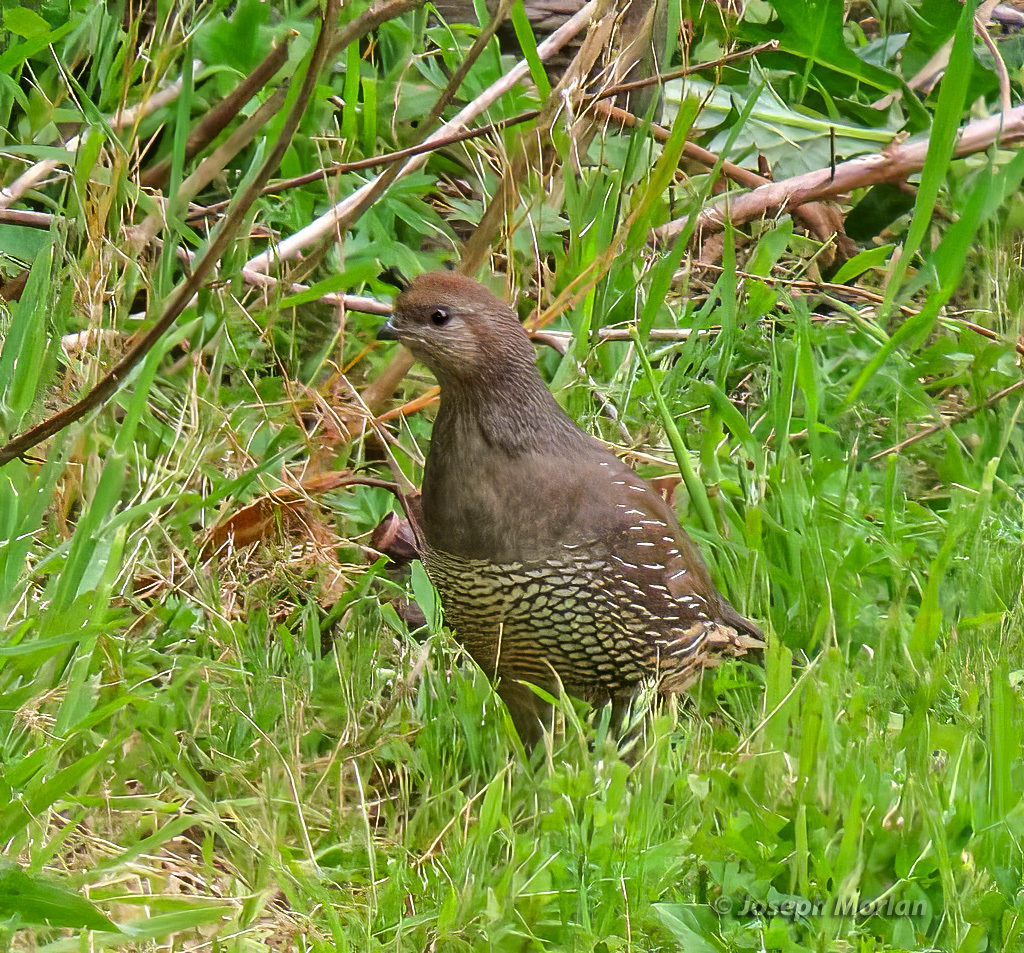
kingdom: Animalia
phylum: Chordata
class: Aves
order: Galliformes
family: Odontophoridae
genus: Callipepla
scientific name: Callipepla californica
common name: California quail
